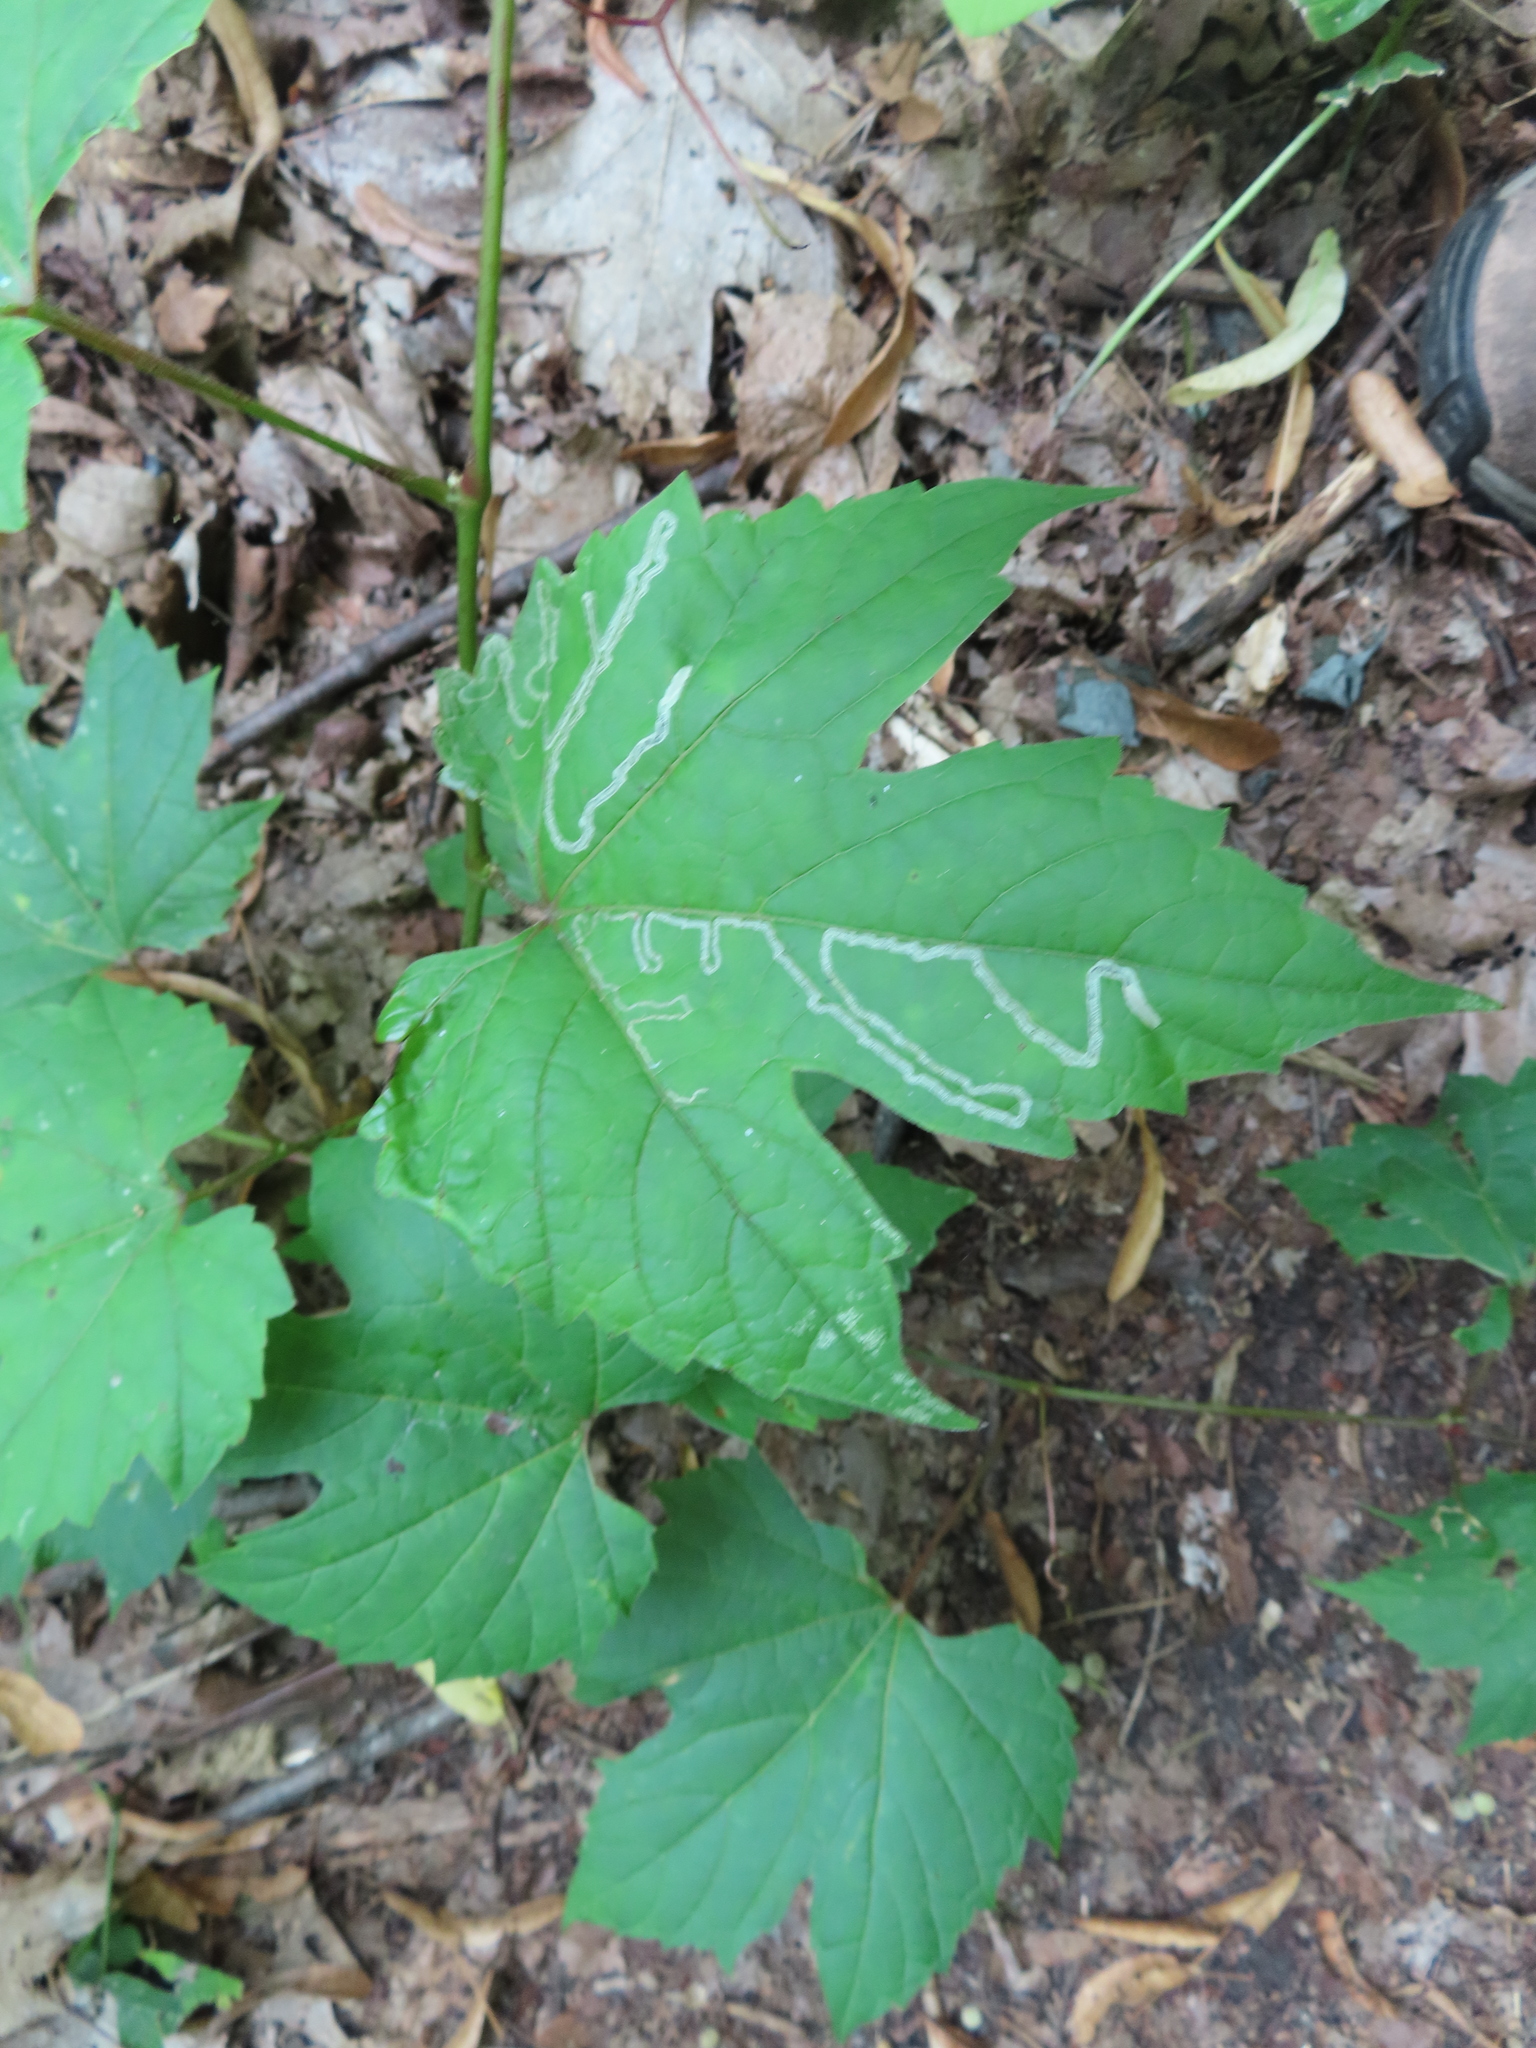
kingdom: Animalia
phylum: Arthropoda
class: Insecta
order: Lepidoptera
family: Gracillariidae
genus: Phyllocnistis
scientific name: Phyllocnistis vitifoliella
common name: Grape leaf-miner moth
